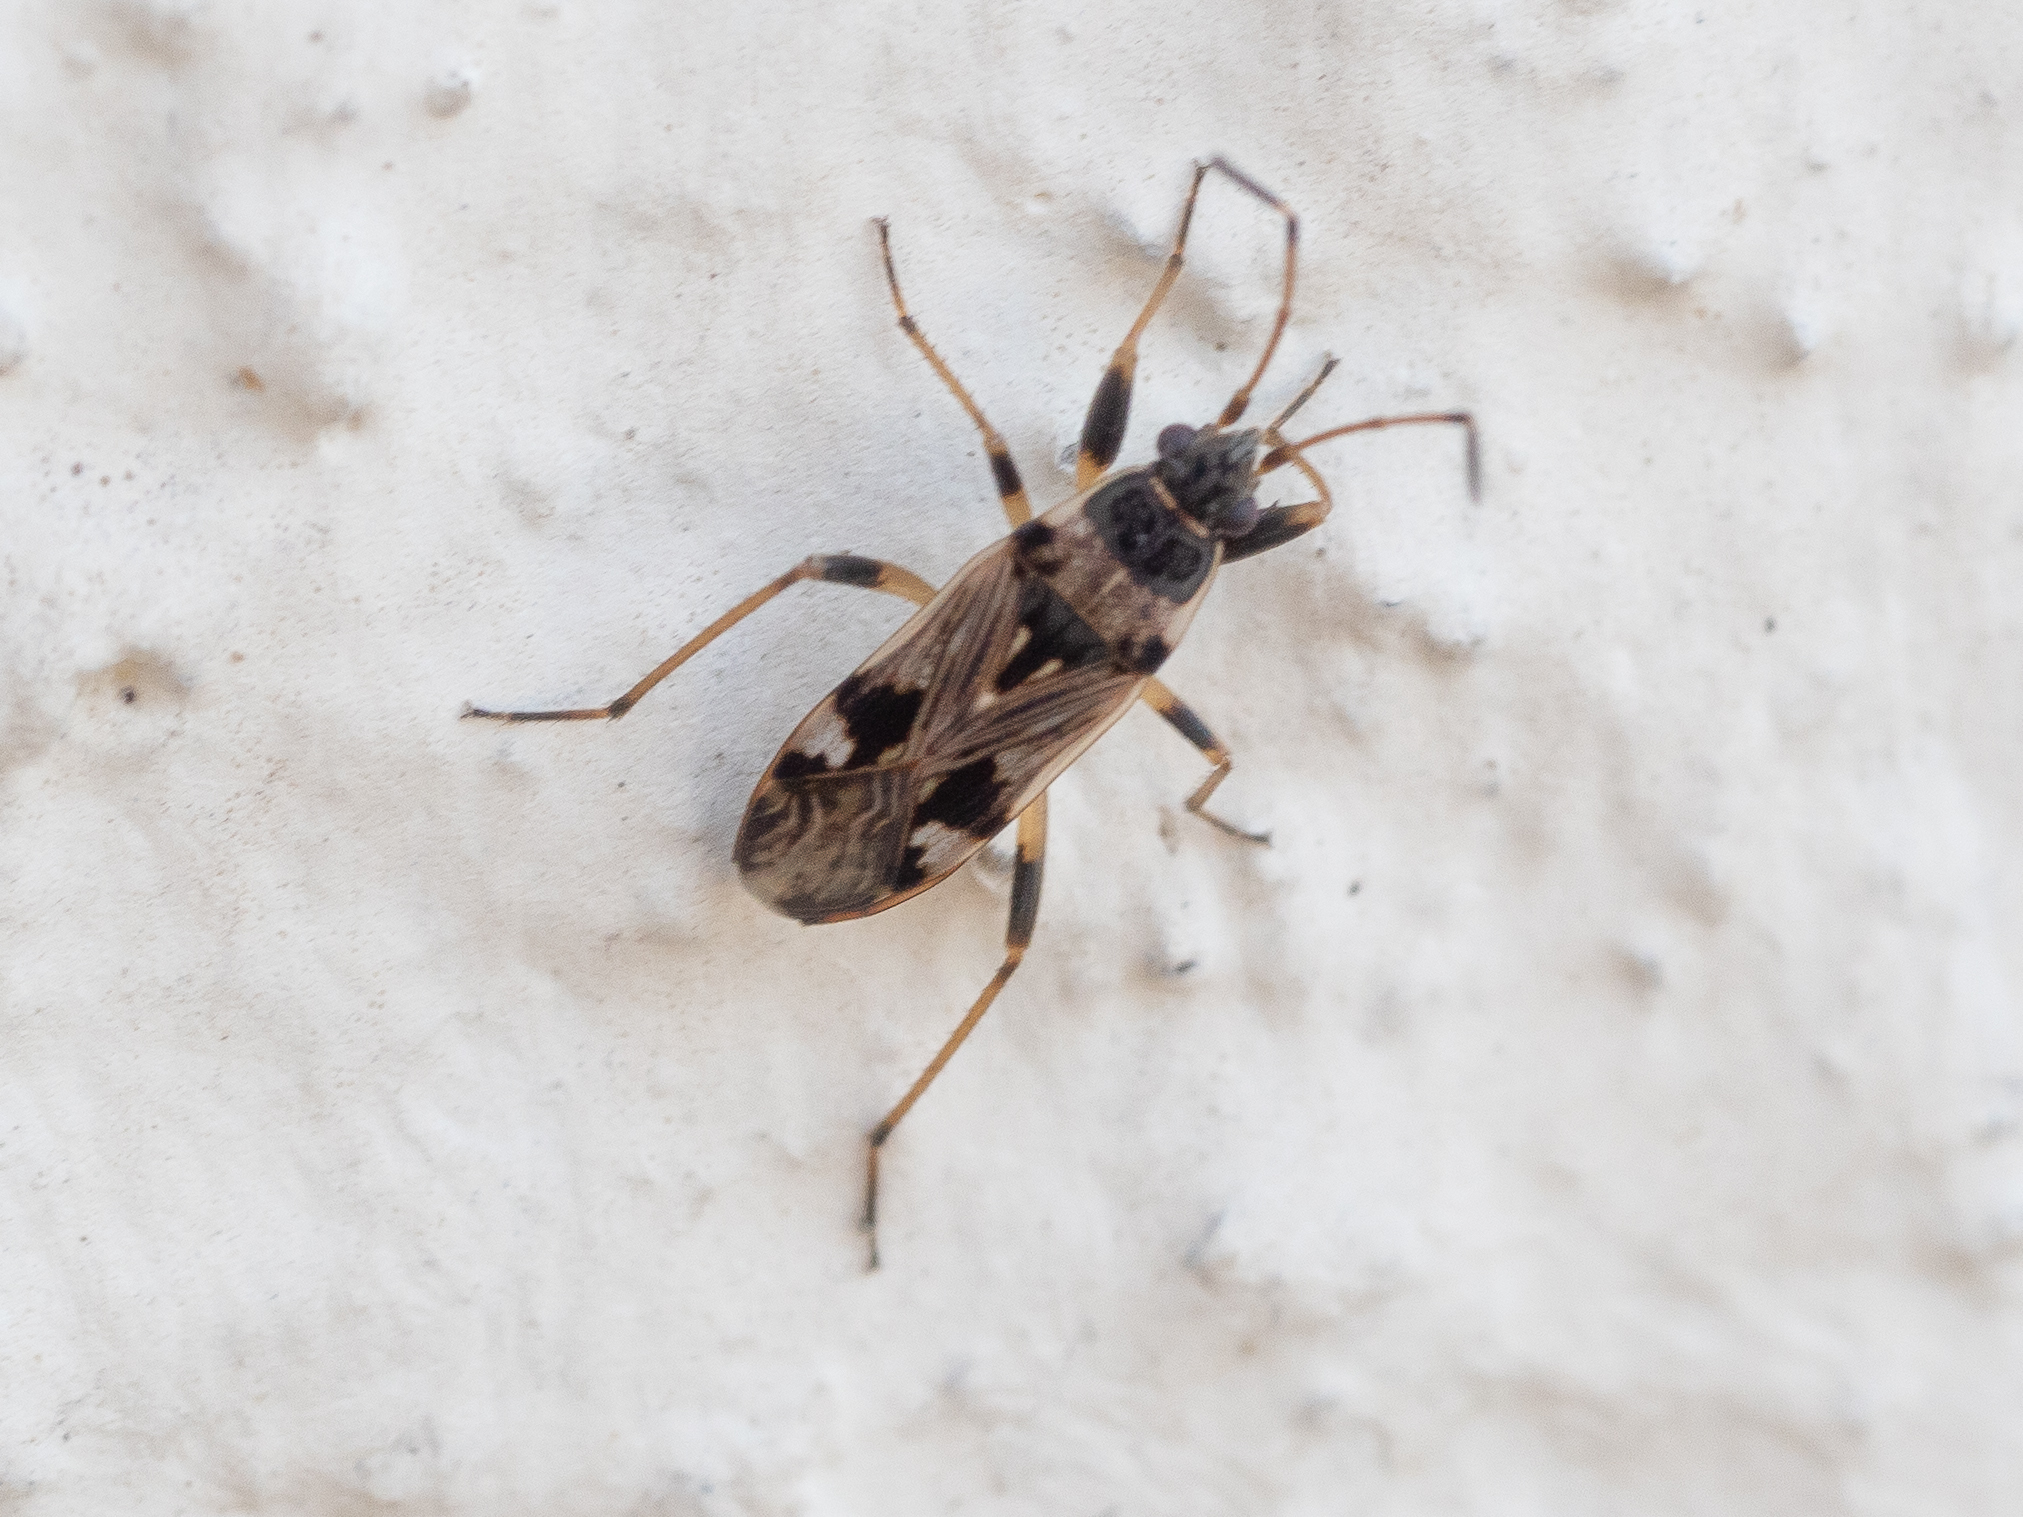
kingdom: Animalia
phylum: Arthropoda
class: Insecta
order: Hemiptera
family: Rhyparochromidae
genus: Beosus
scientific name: Beosus maritimus
